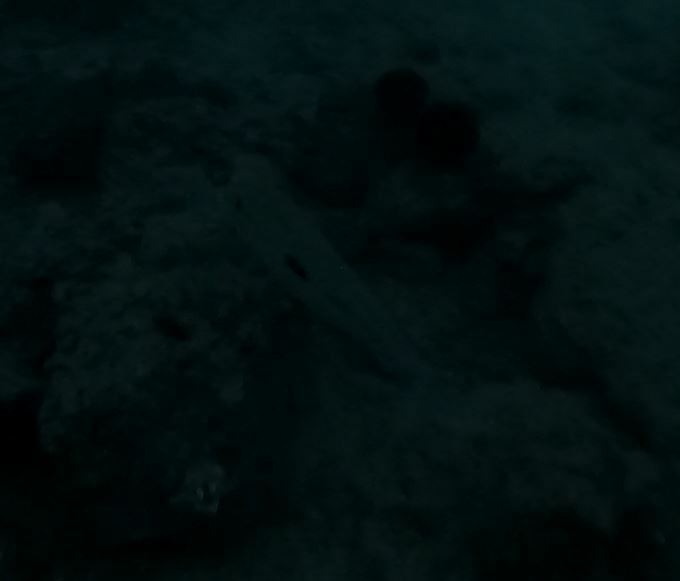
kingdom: Animalia
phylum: Chordata
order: Perciformes
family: Mullidae
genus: Mulloidichthys
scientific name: Mulloidichthys flavolineatus
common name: Yellowstripe goatfish
